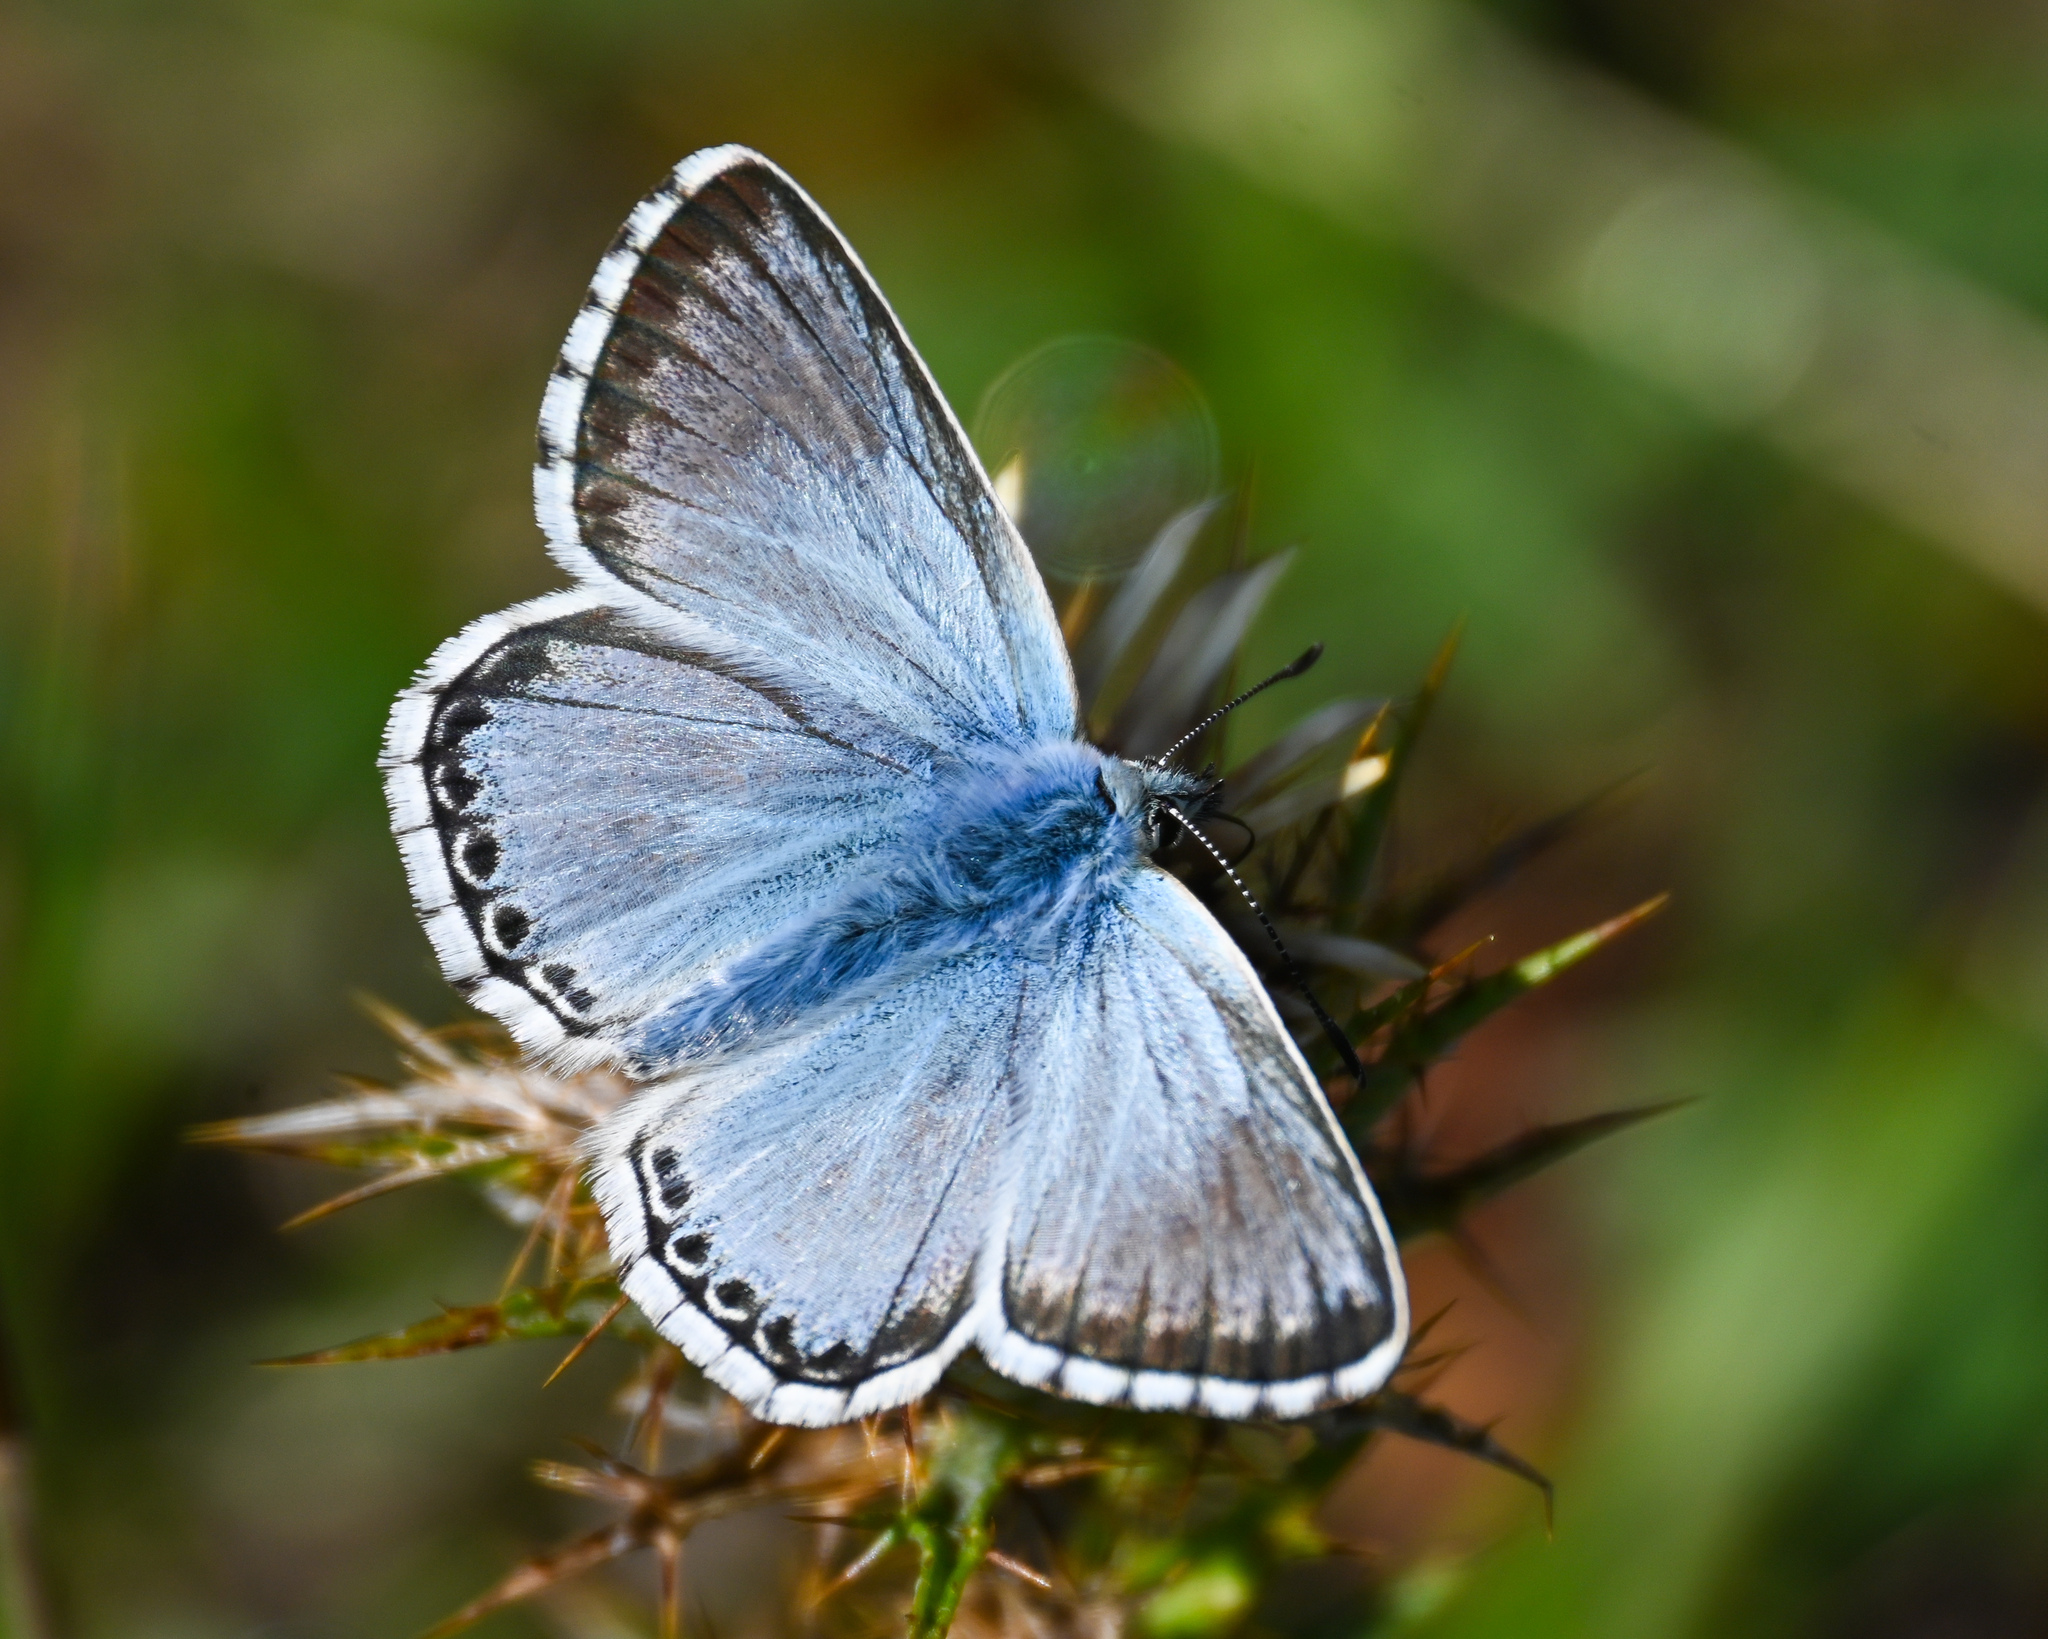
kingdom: Animalia
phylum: Arthropoda
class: Insecta
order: Lepidoptera
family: Lycaenidae
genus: Lysandra
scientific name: Lysandra coridon
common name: Chalkhill blue
